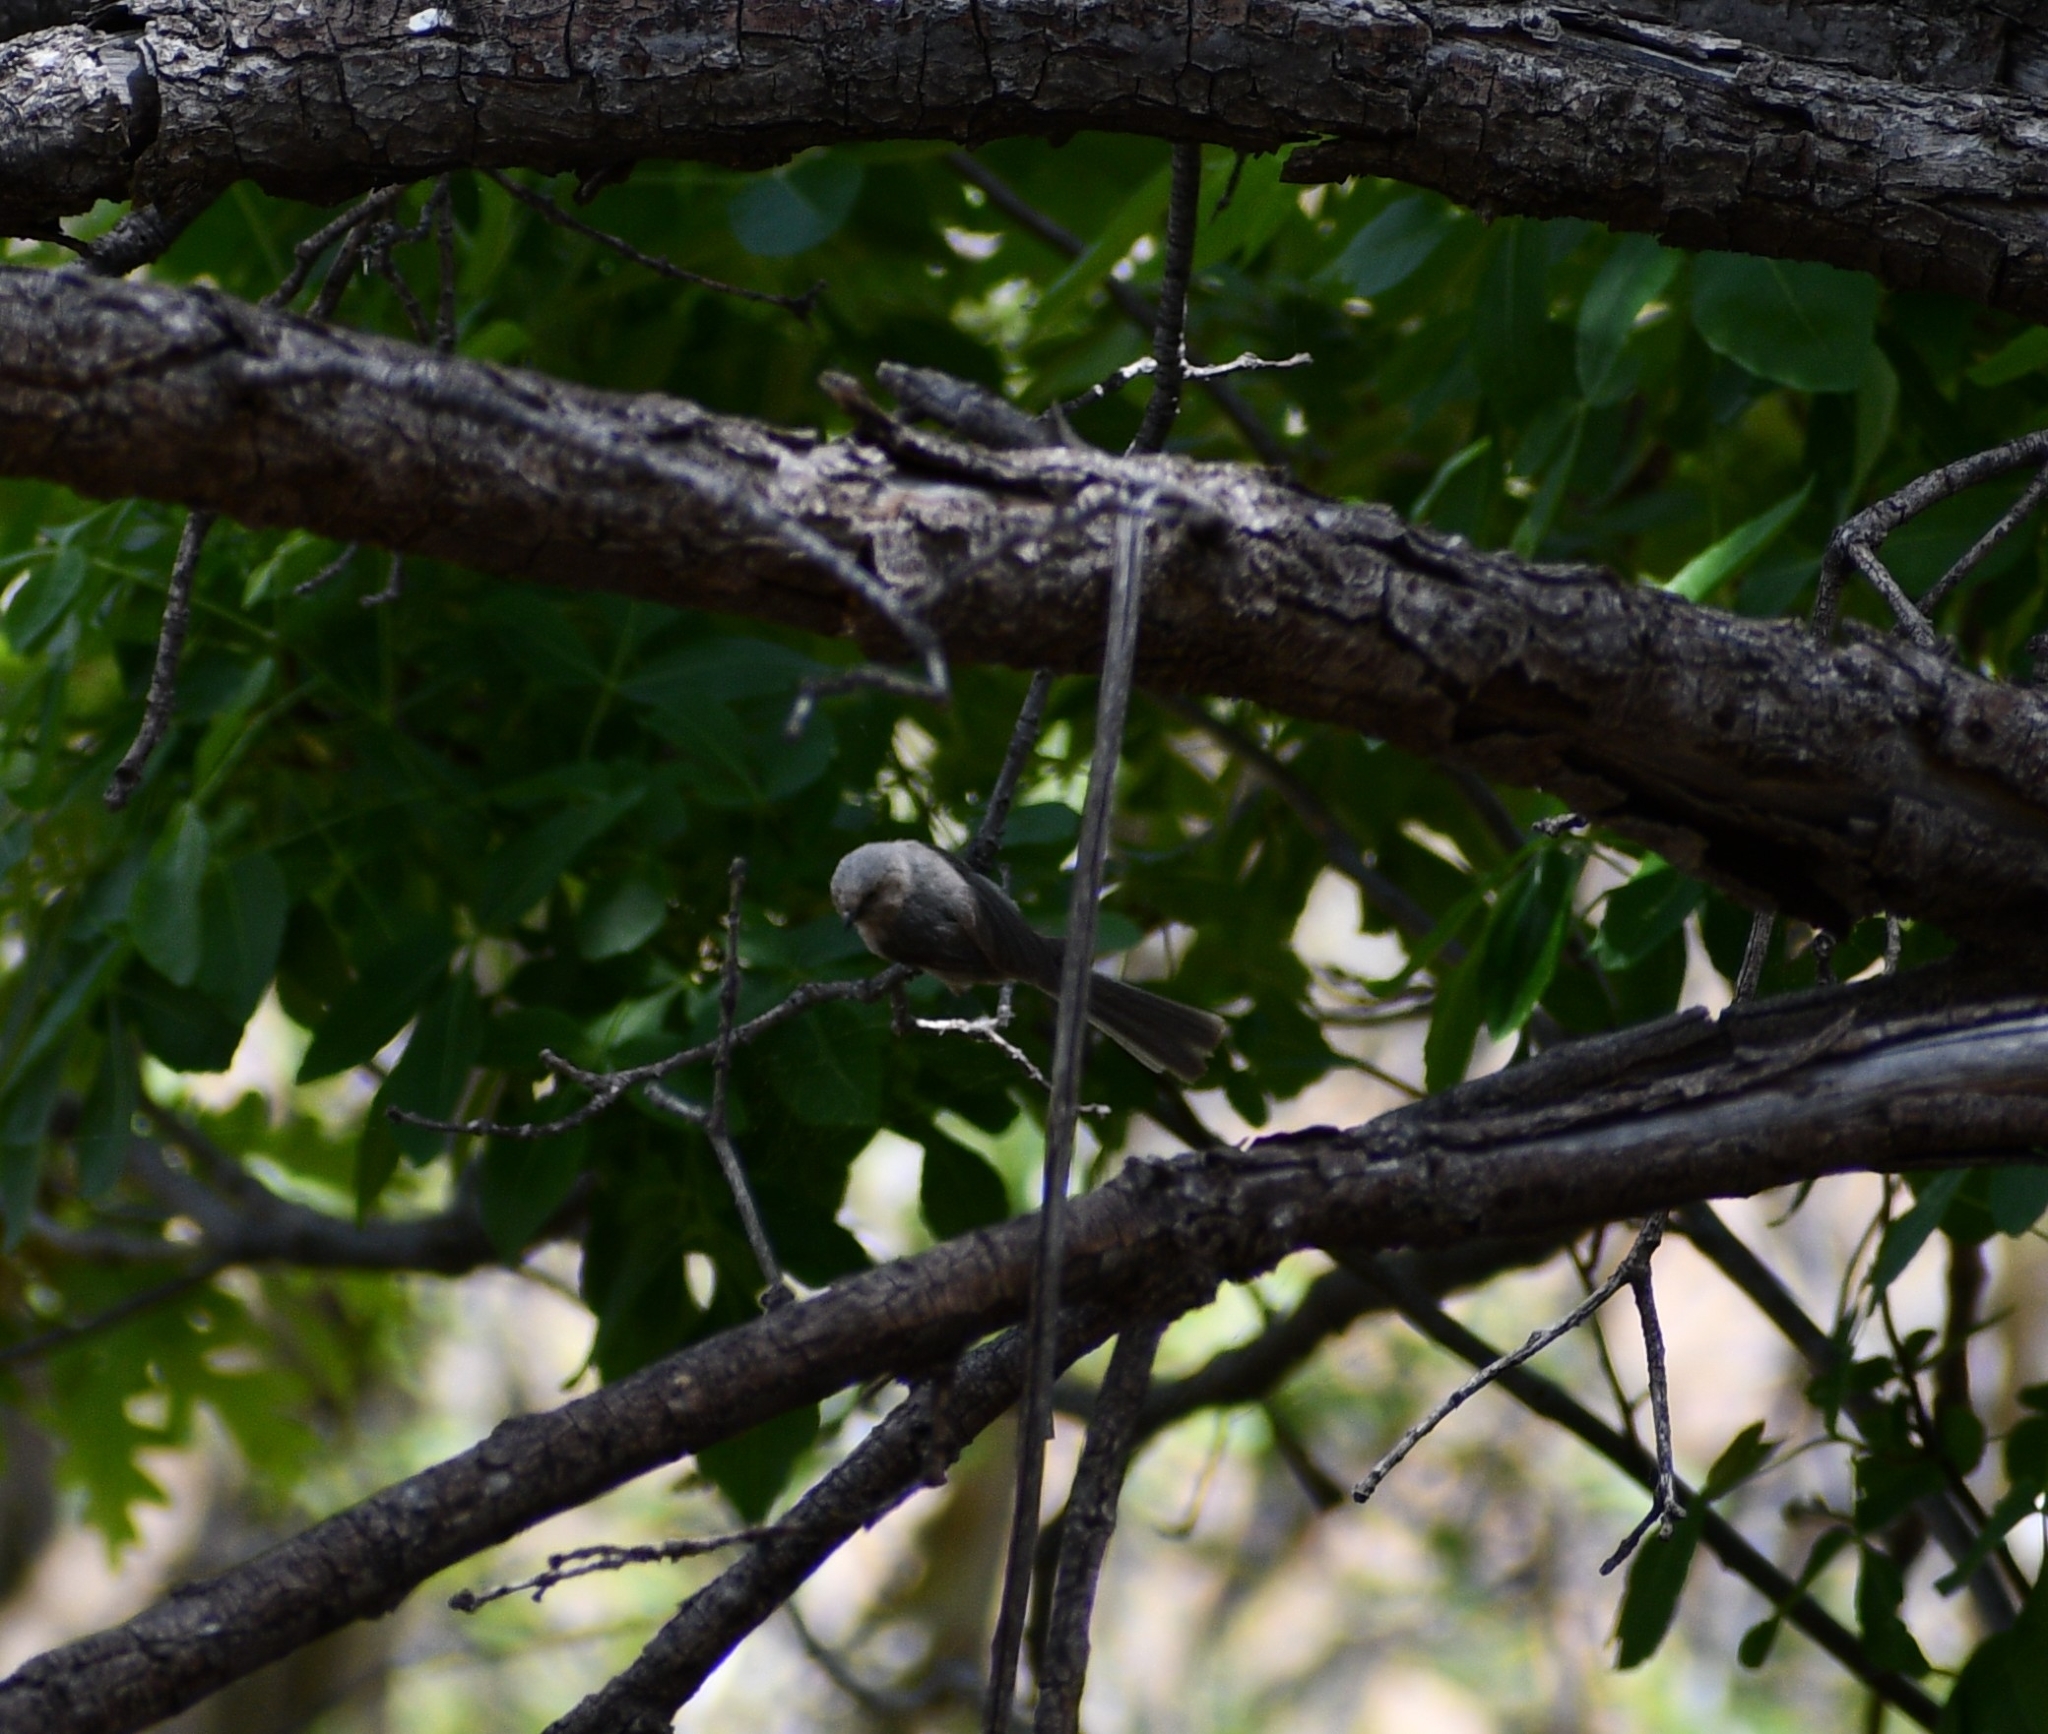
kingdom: Animalia
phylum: Chordata
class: Aves
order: Passeriformes
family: Aegithalidae
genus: Psaltriparus
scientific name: Psaltriparus minimus
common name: American bushtit
